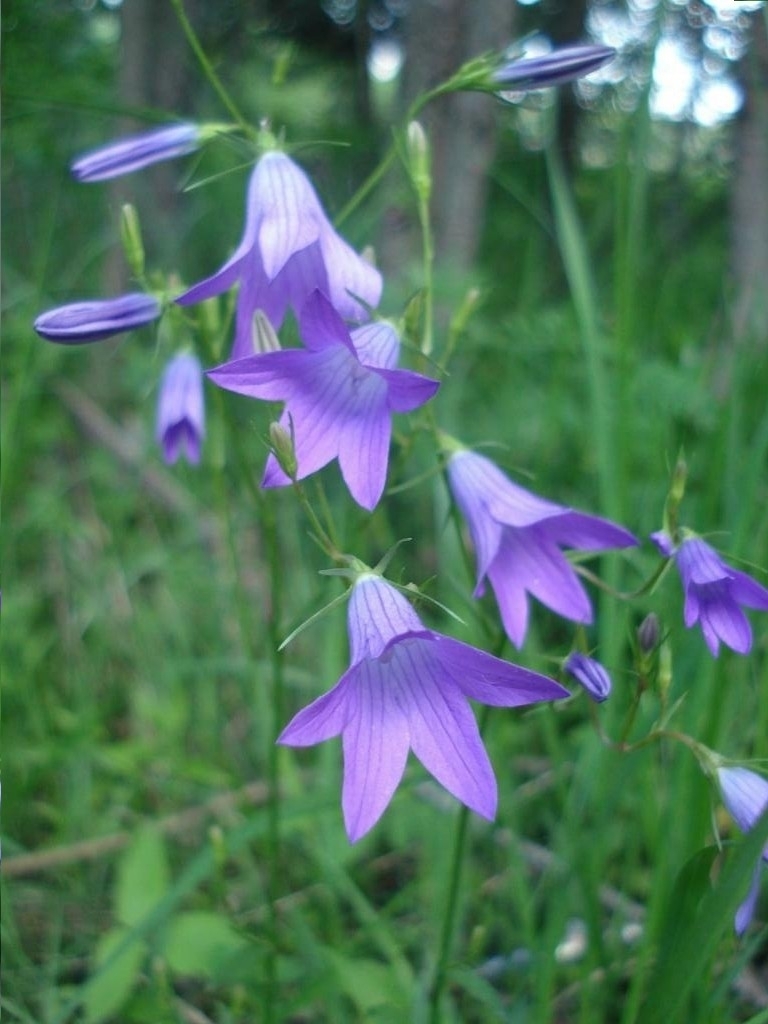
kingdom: Plantae
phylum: Tracheophyta
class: Magnoliopsida
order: Asterales
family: Campanulaceae
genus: Campanula
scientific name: Campanula patula
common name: Spreading bellflower
